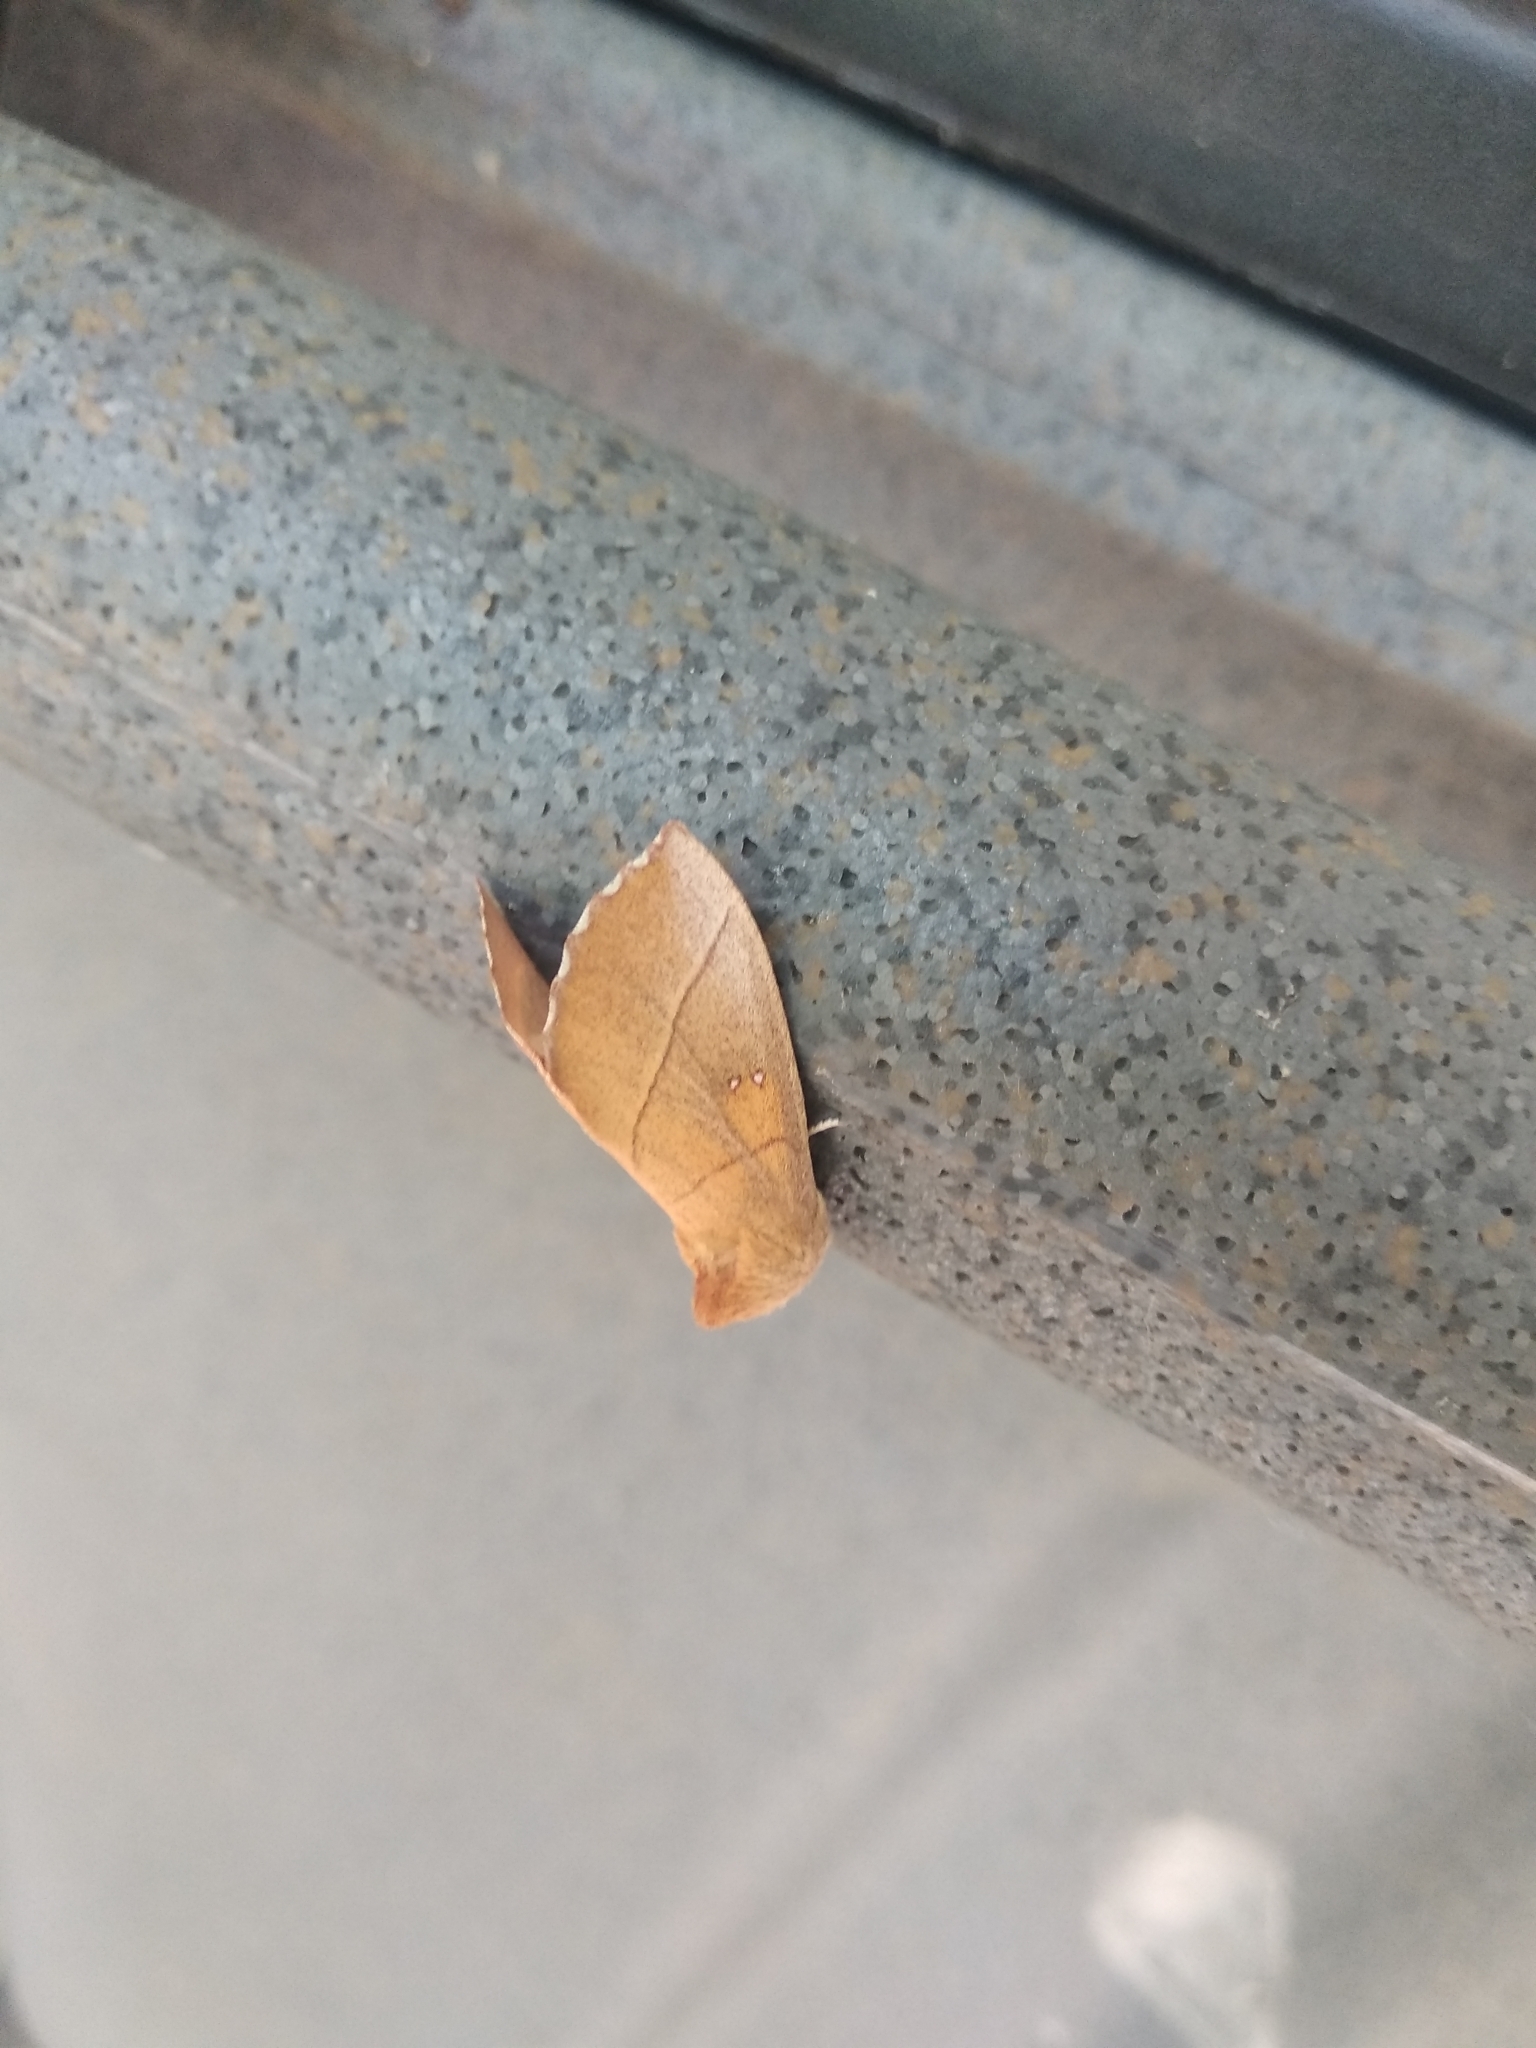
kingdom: Animalia
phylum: Arthropoda
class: Insecta
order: Lepidoptera
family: Notodontidae
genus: Nadata
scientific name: Nadata gibbosa
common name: White-dotted prominent
